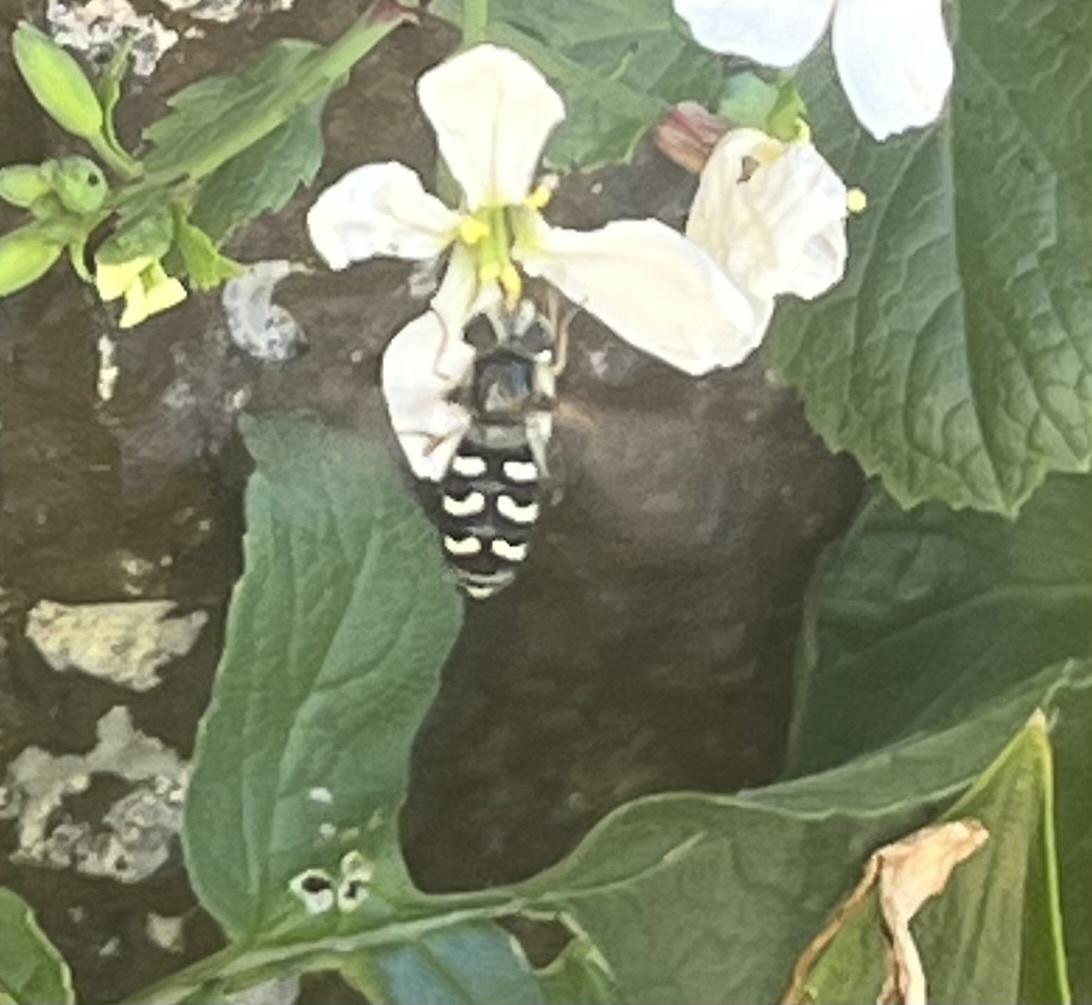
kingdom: Animalia
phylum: Arthropoda
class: Insecta
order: Diptera
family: Syrphidae
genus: Scaeva
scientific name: Scaeva pyrastri
